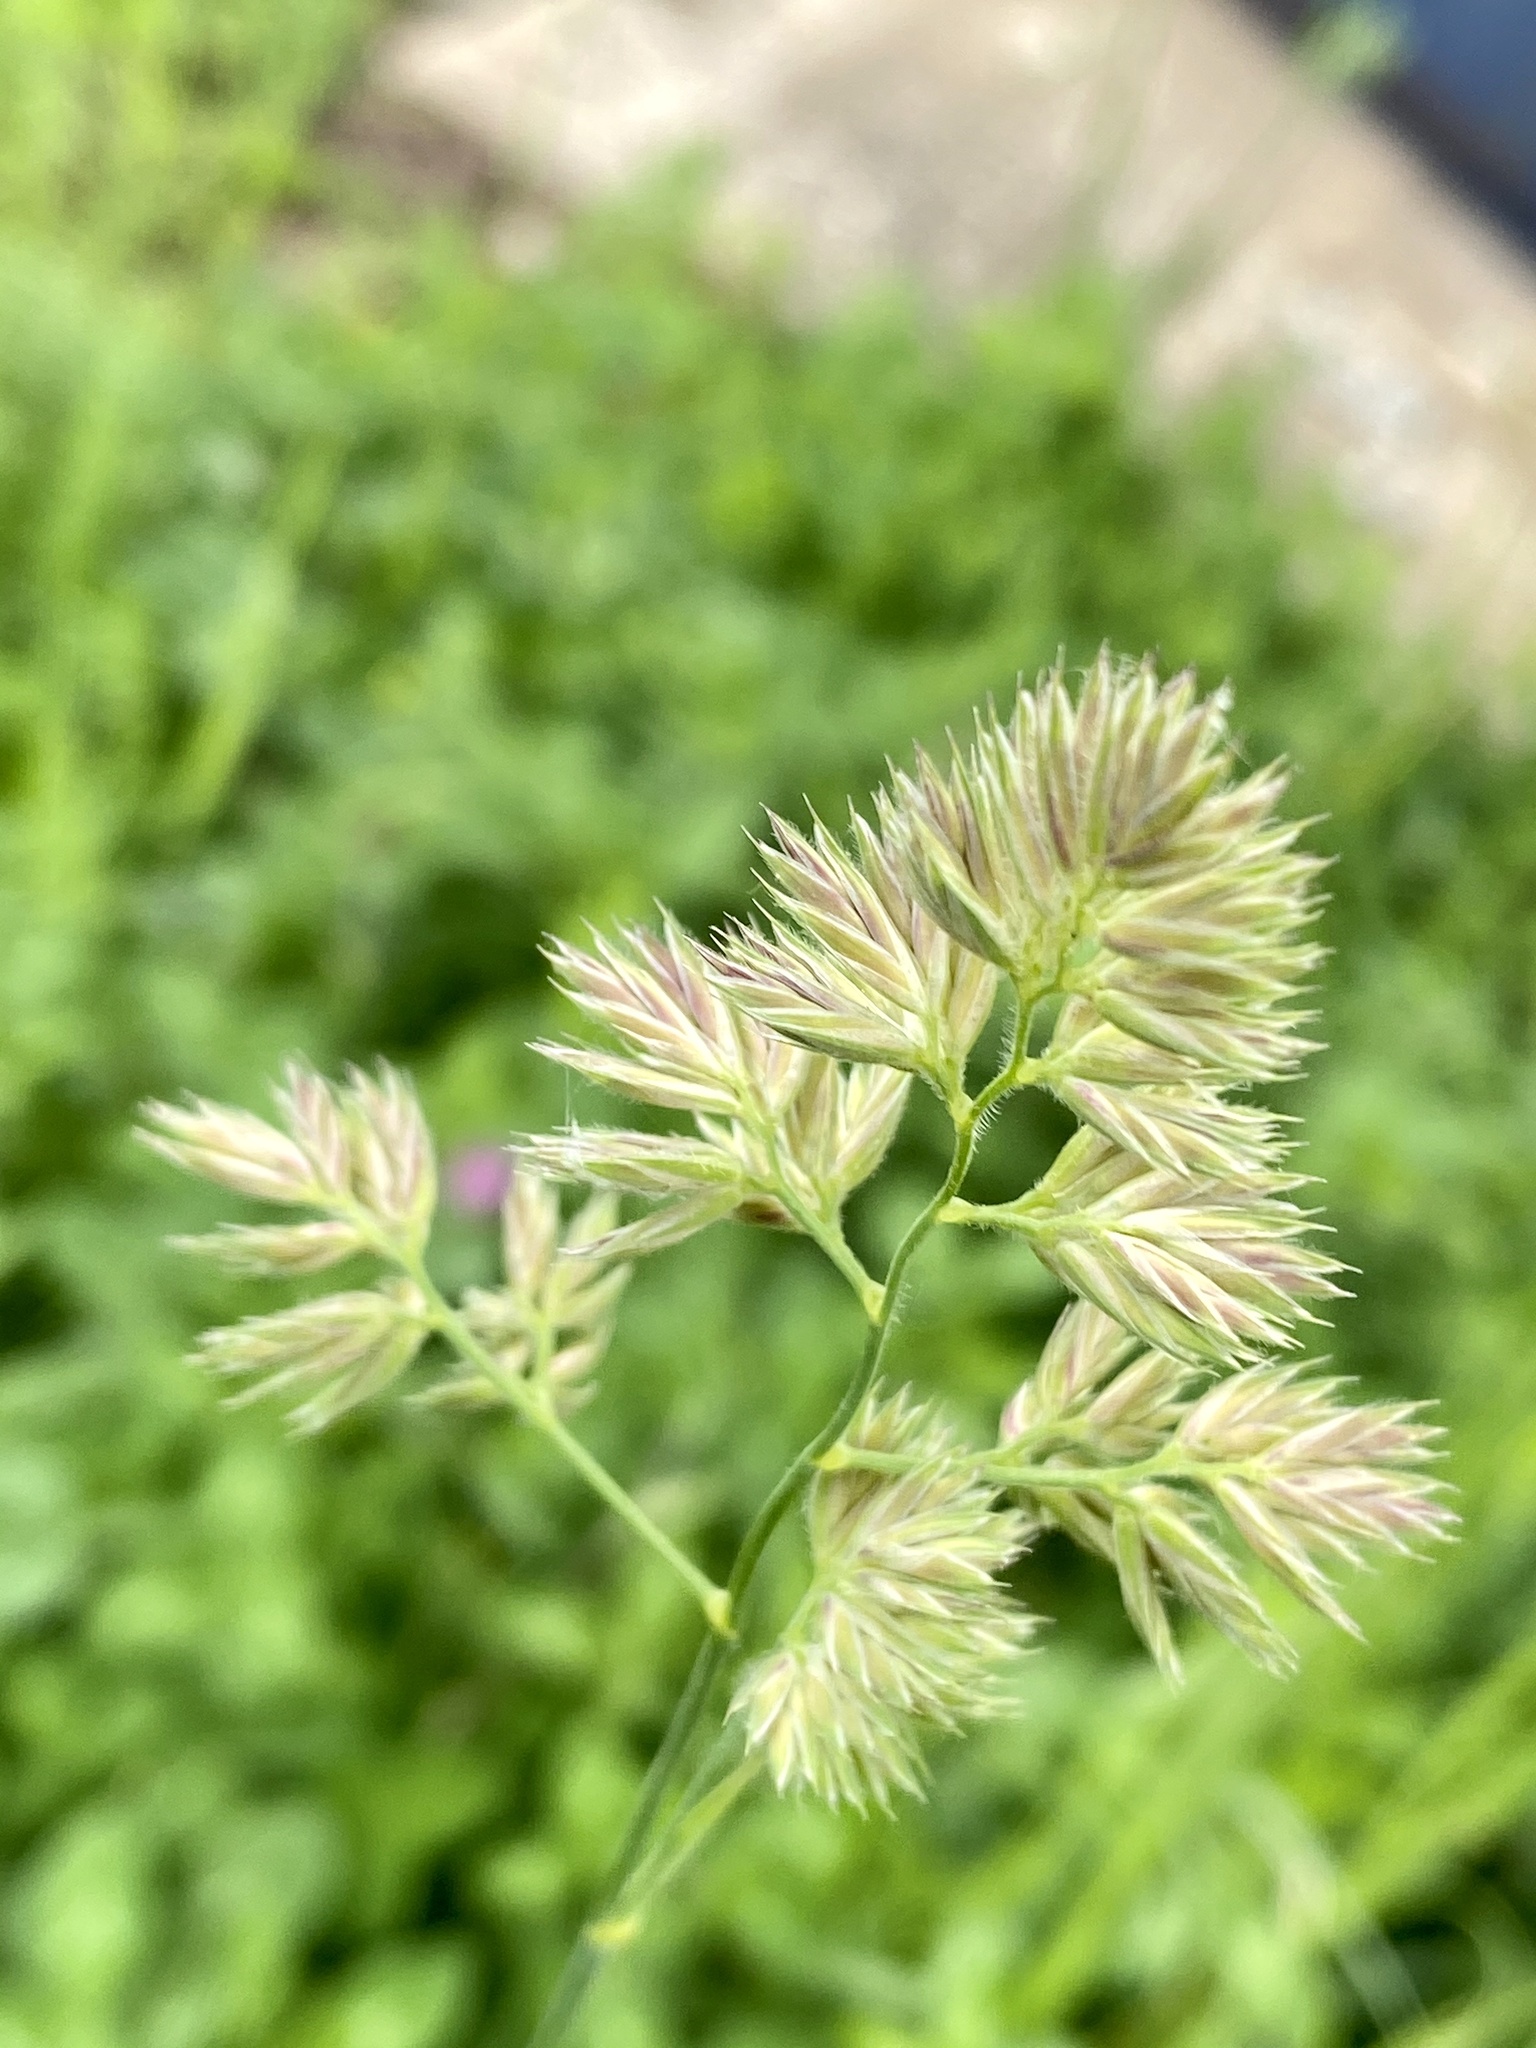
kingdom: Plantae
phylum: Tracheophyta
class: Liliopsida
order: Poales
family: Poaceae
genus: Dactylis
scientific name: Dactylis glomerata
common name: Orchardgrass
